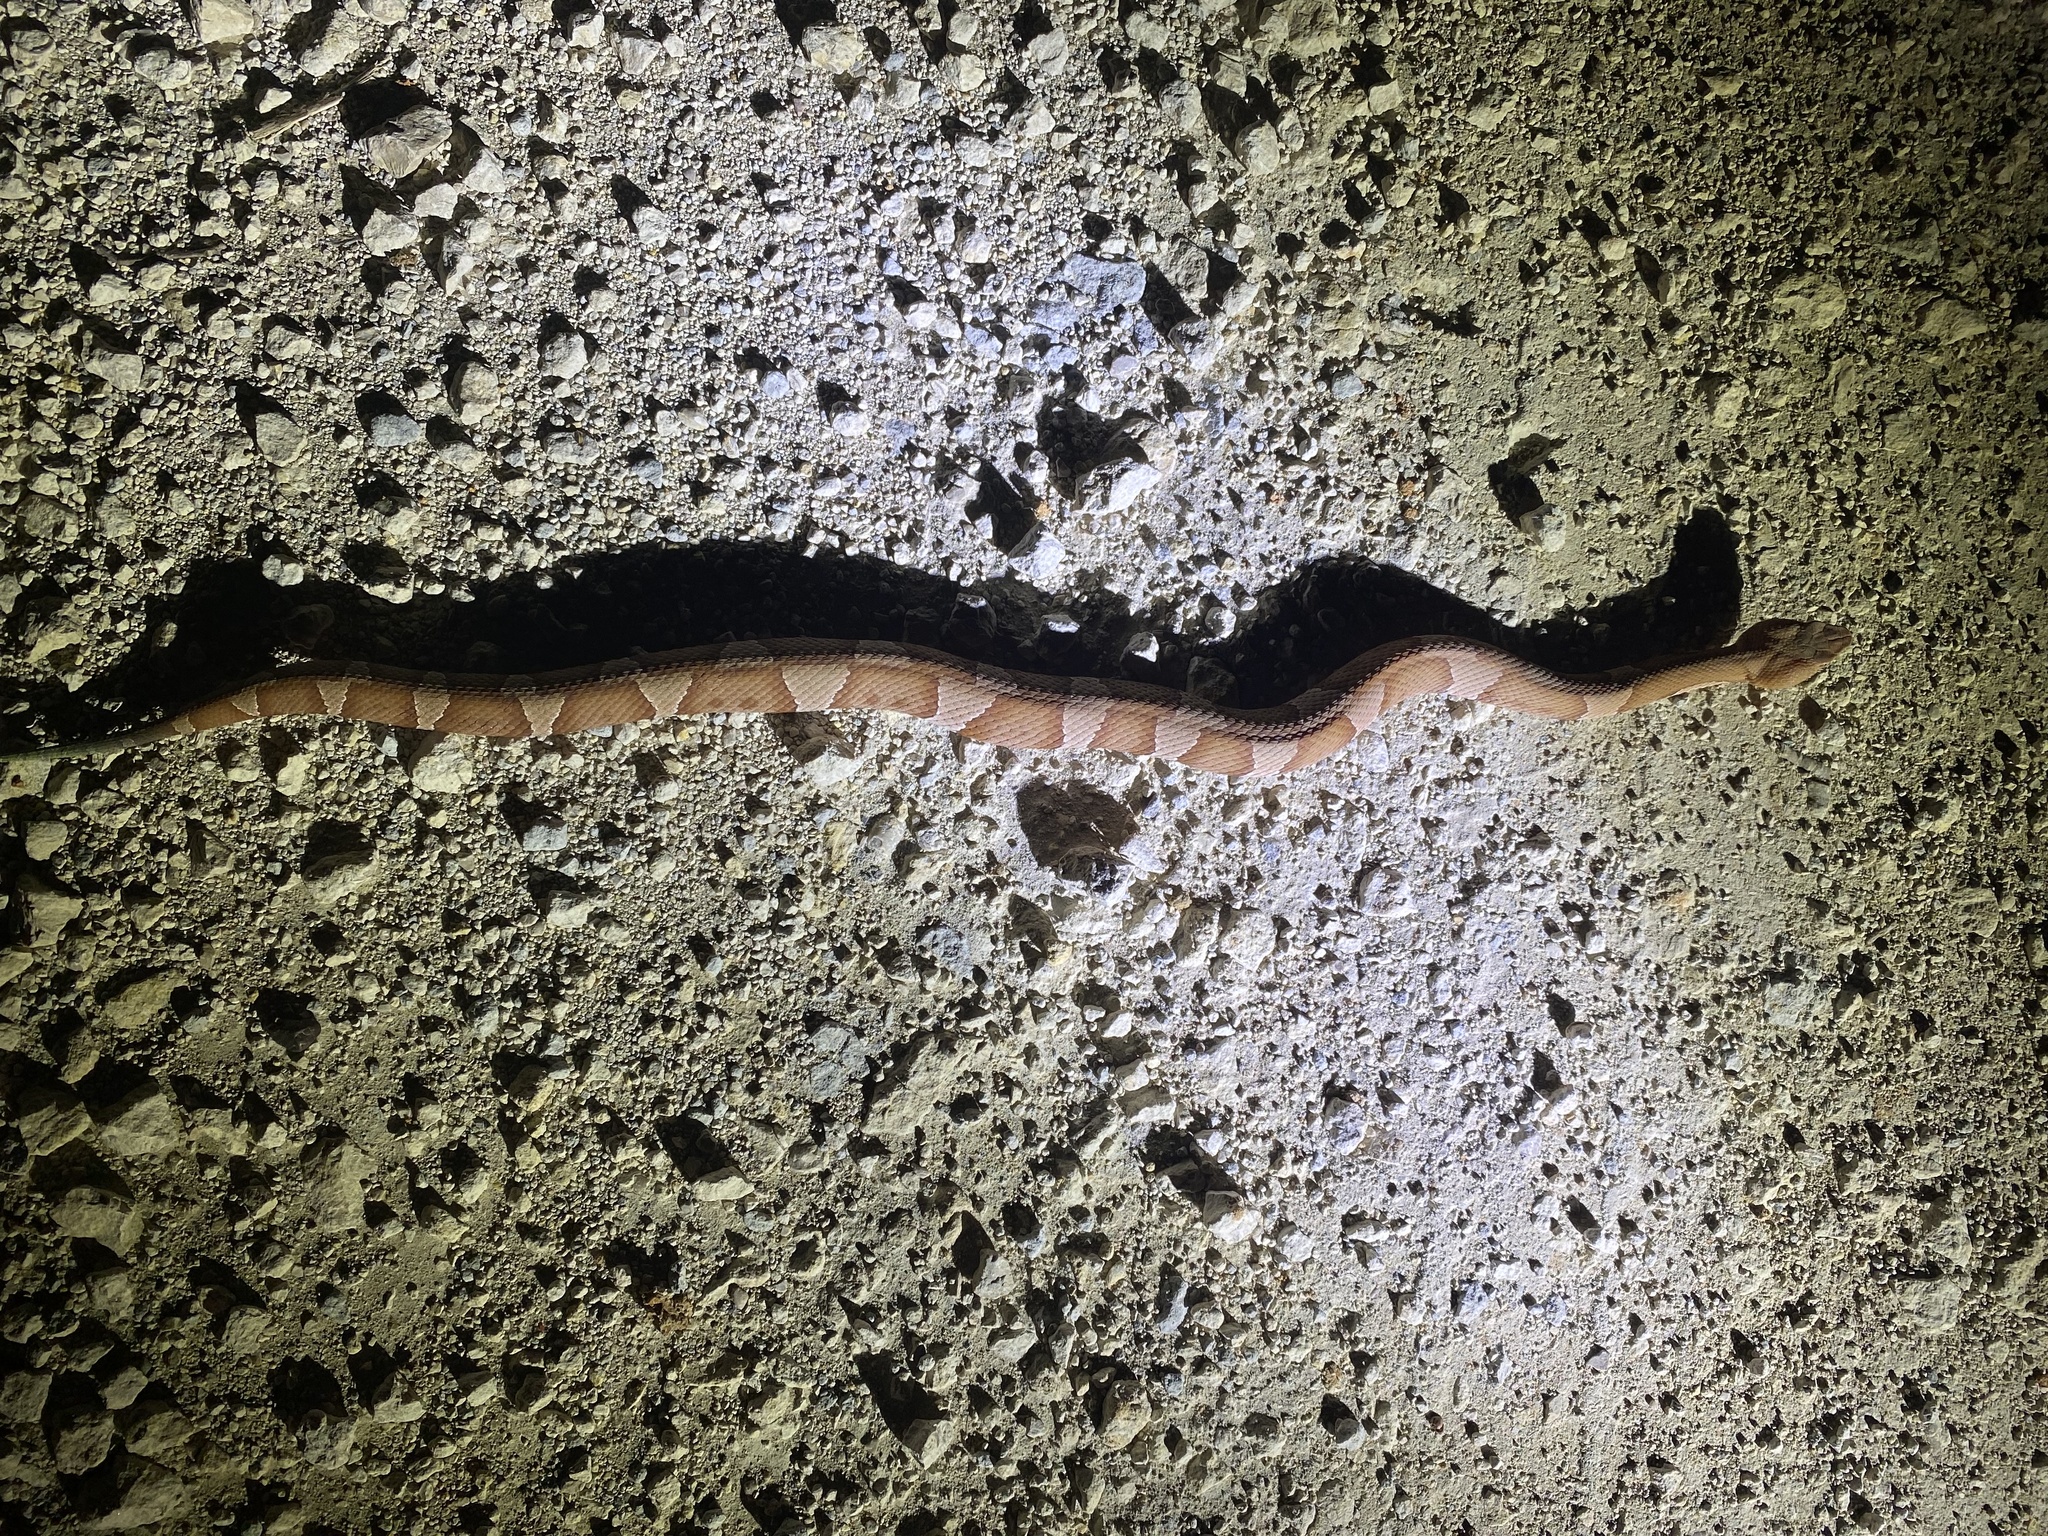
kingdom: Animalia
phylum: Chordata
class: Squamata
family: Viperidae
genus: Agkistrodon
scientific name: Agkistrodon laticinctus
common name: Broad-banded copperhead
